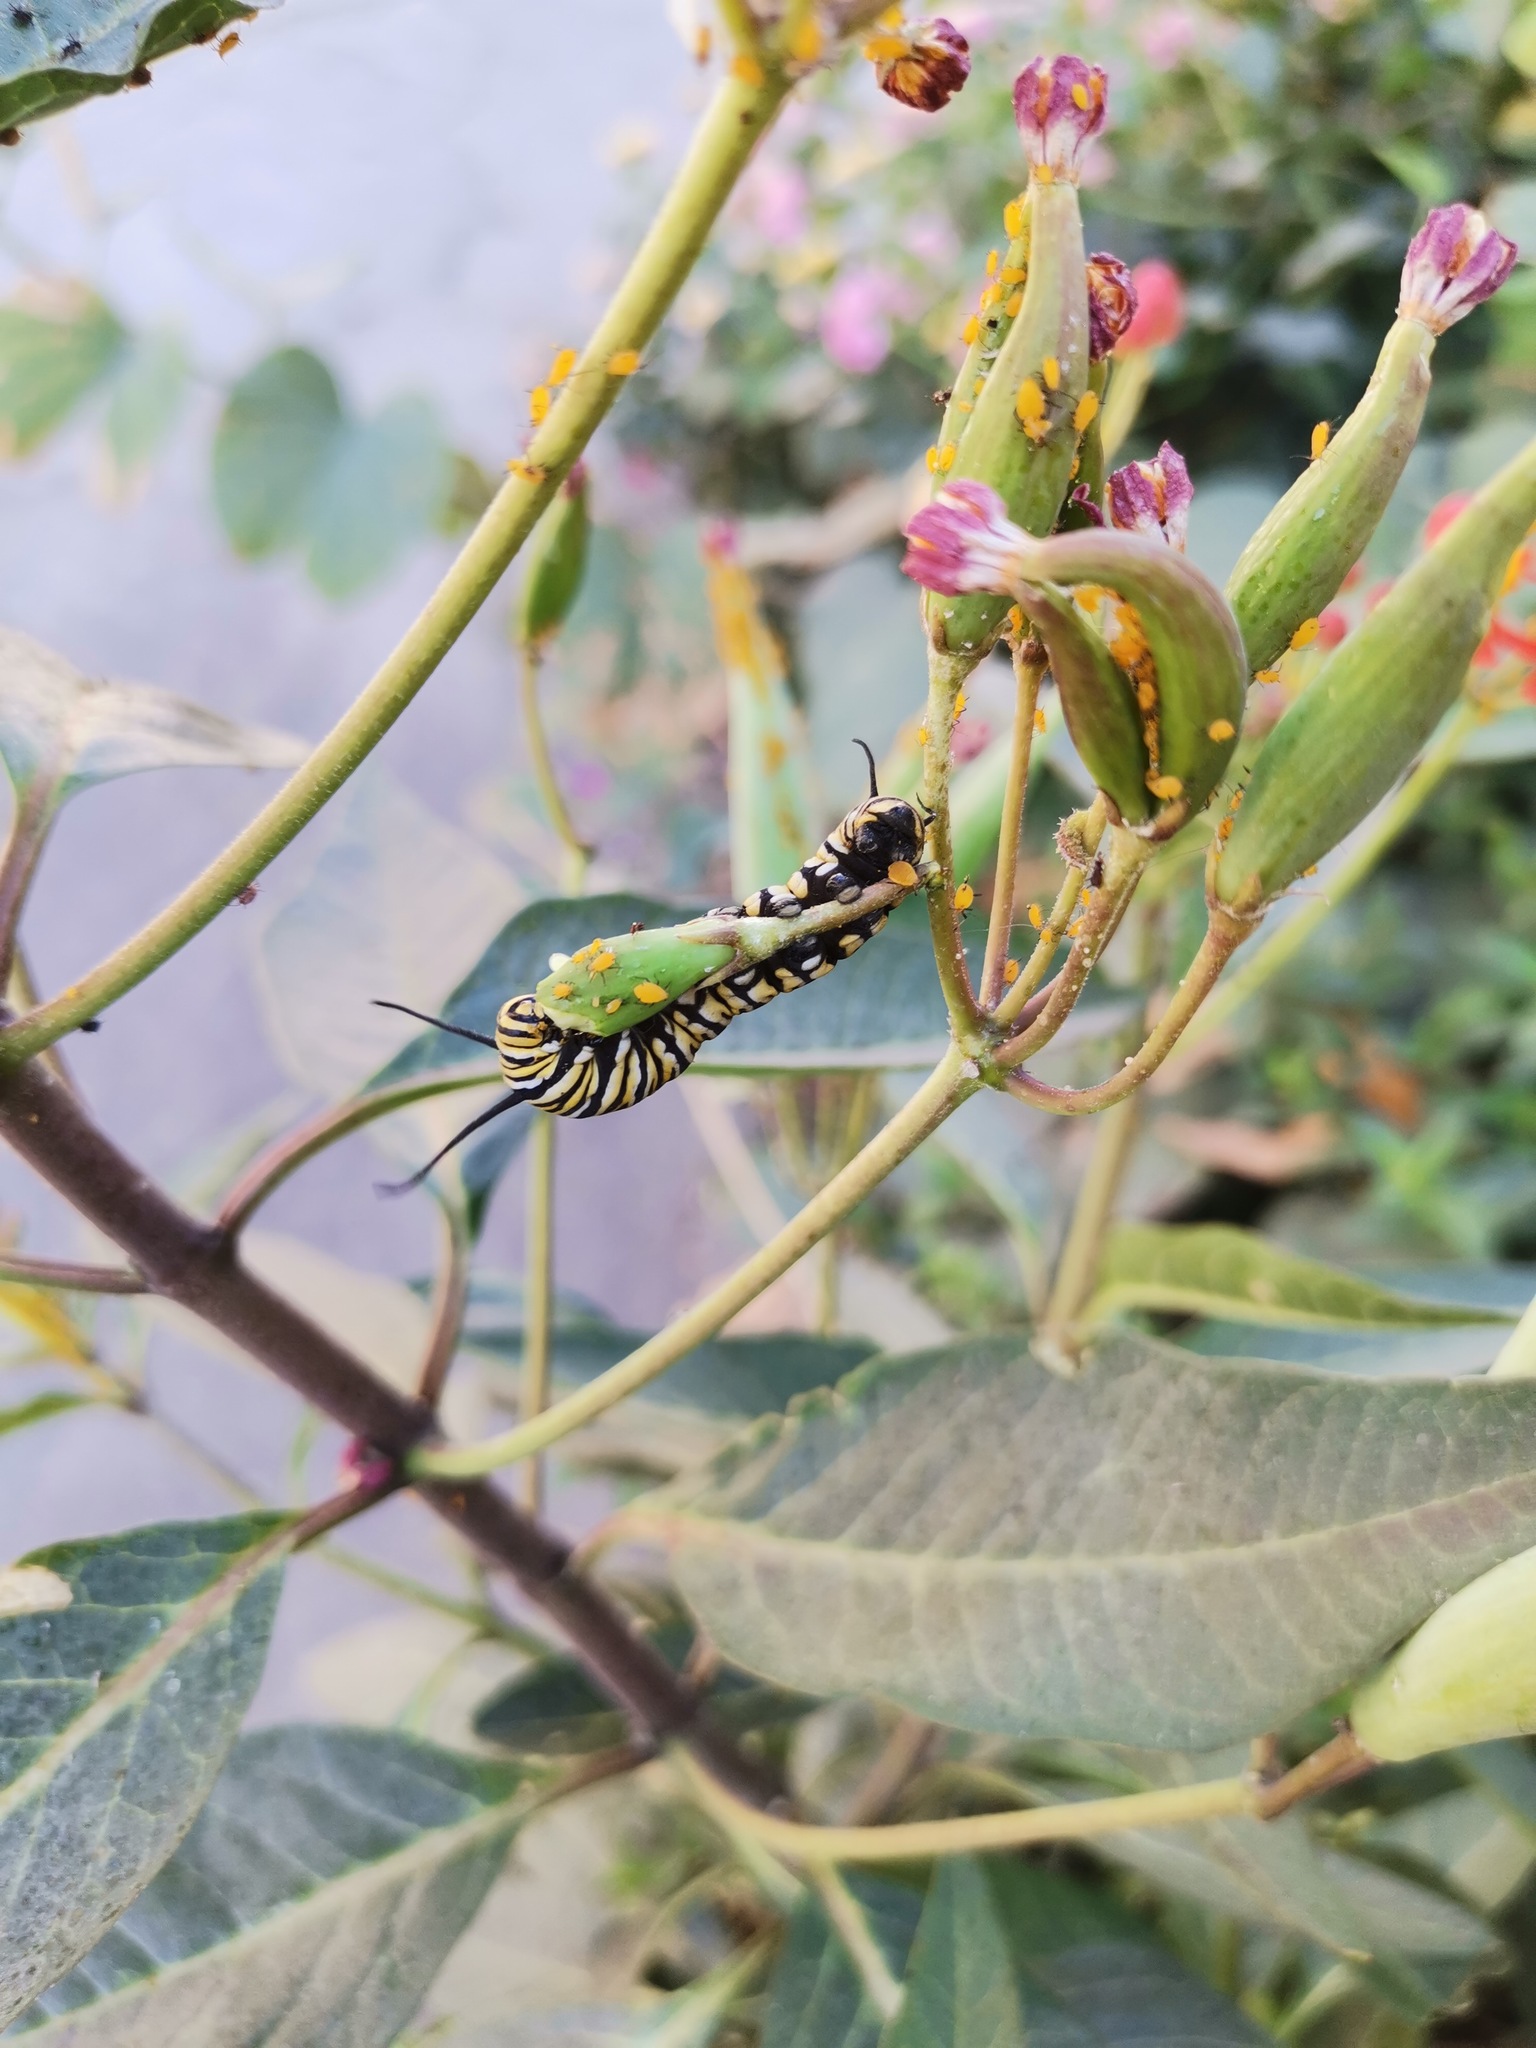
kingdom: Animalia
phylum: Arthropoda
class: Insecta
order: Lepidoptera
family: Nymphalidae
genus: Danaus
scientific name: Danaus plexippus
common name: Monarch
